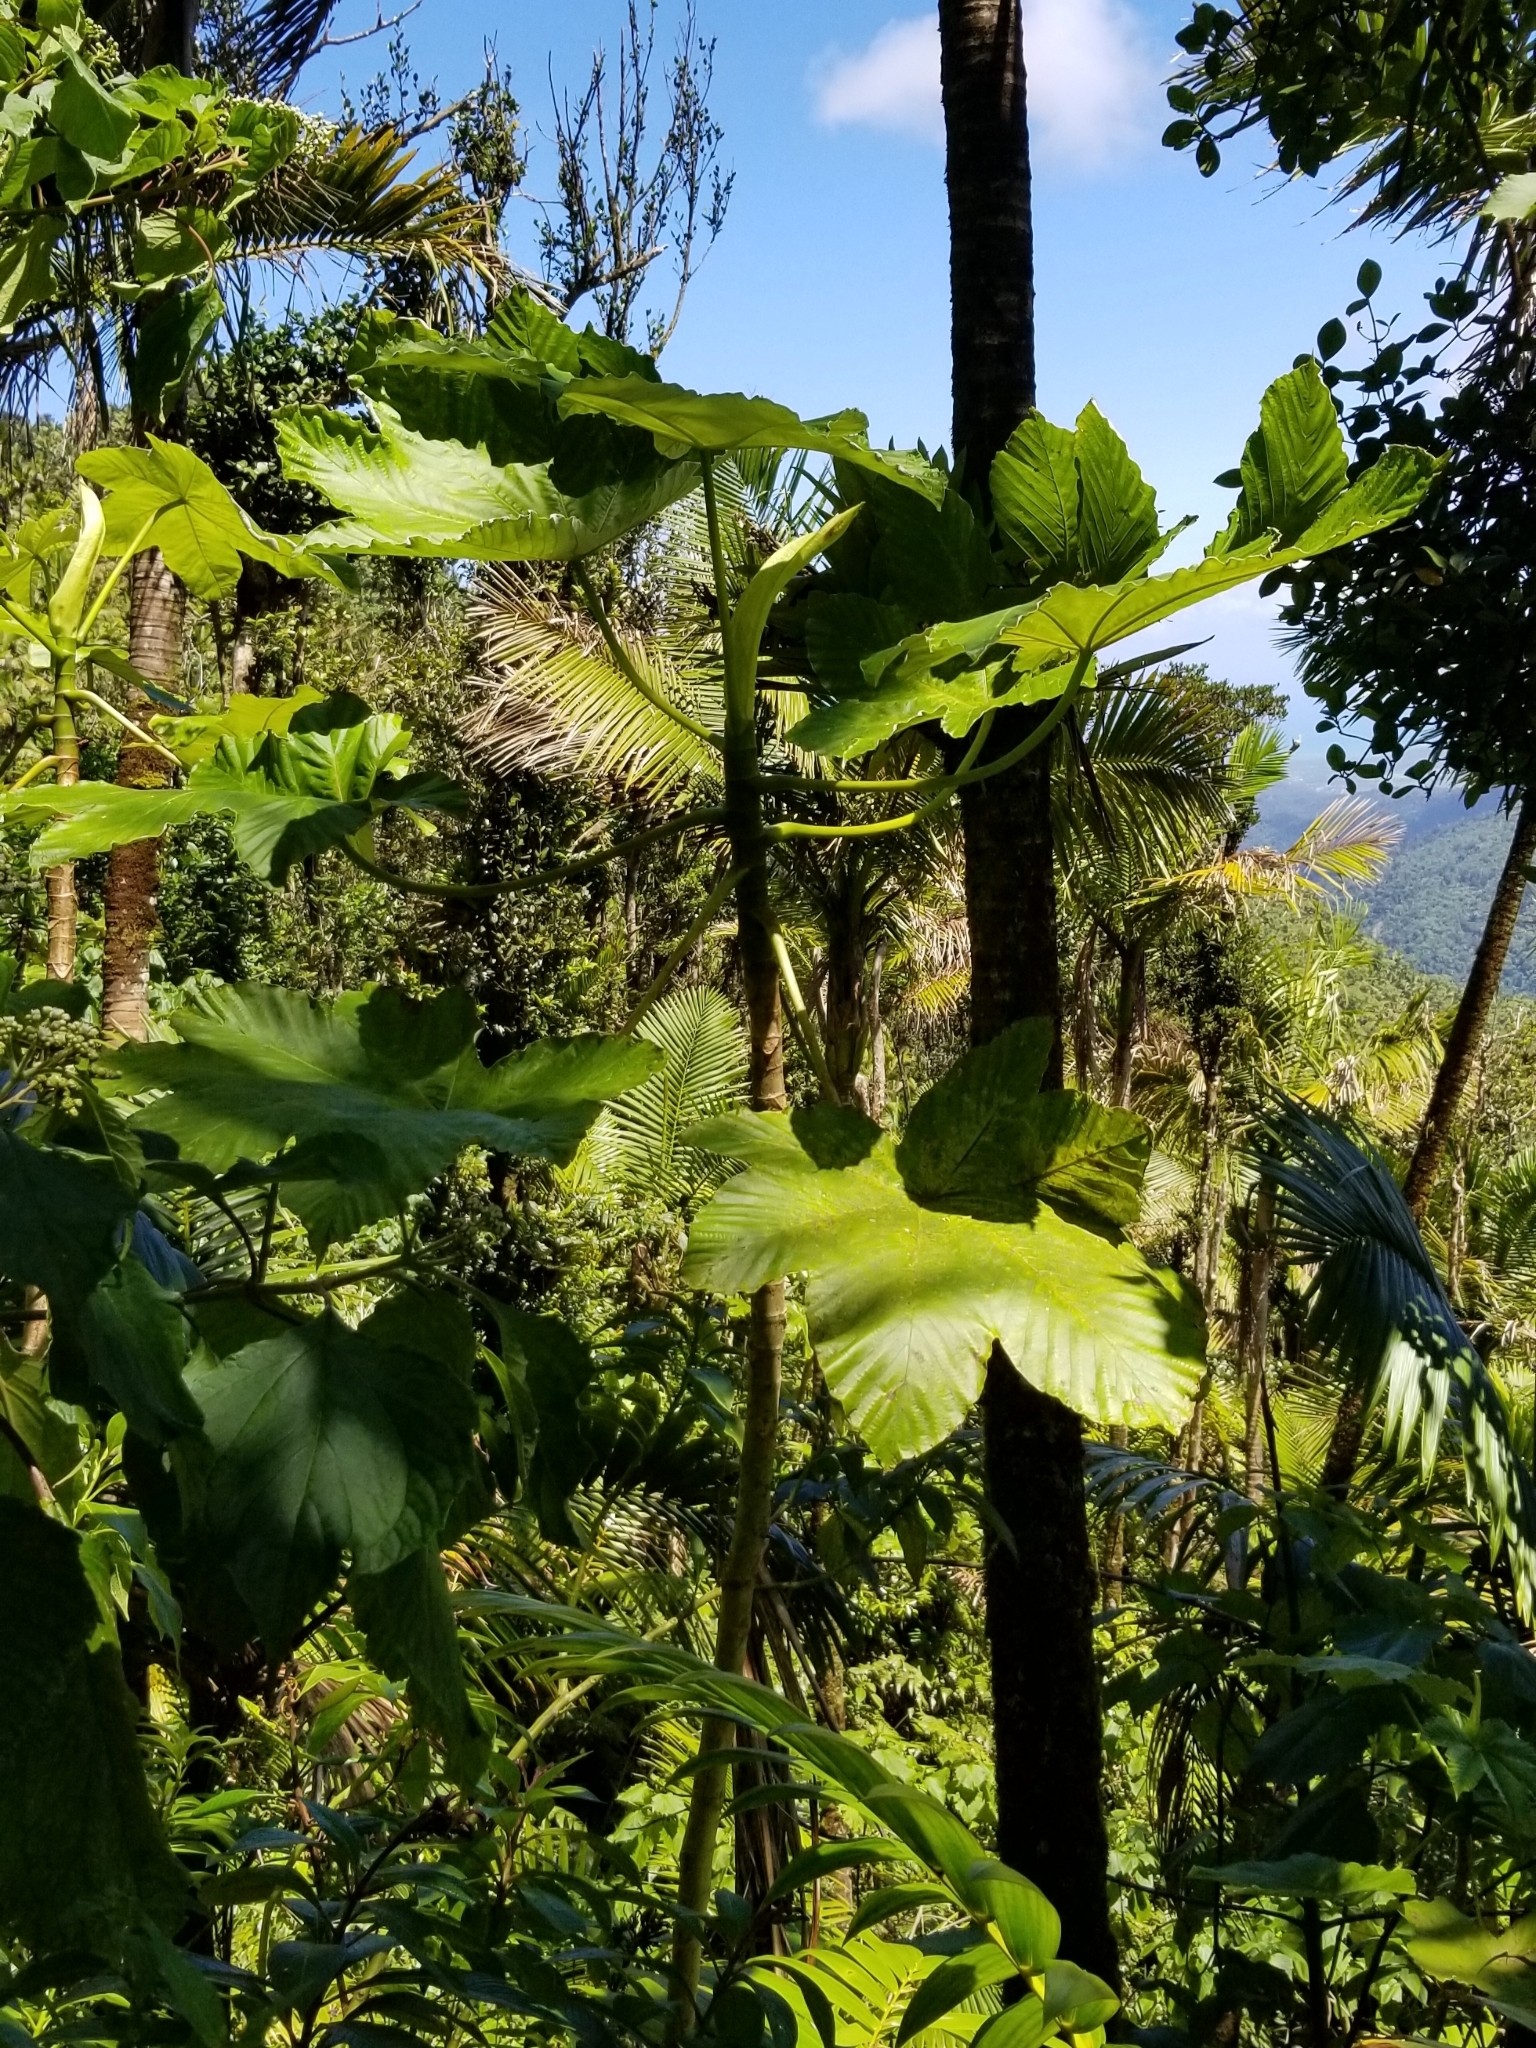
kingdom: Plantae
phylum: Tracheophyta
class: Magnoliopsida
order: Rosales
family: Urticaceae
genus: Cecropia
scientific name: Cecropia schreberiana
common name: Trumpet tree
